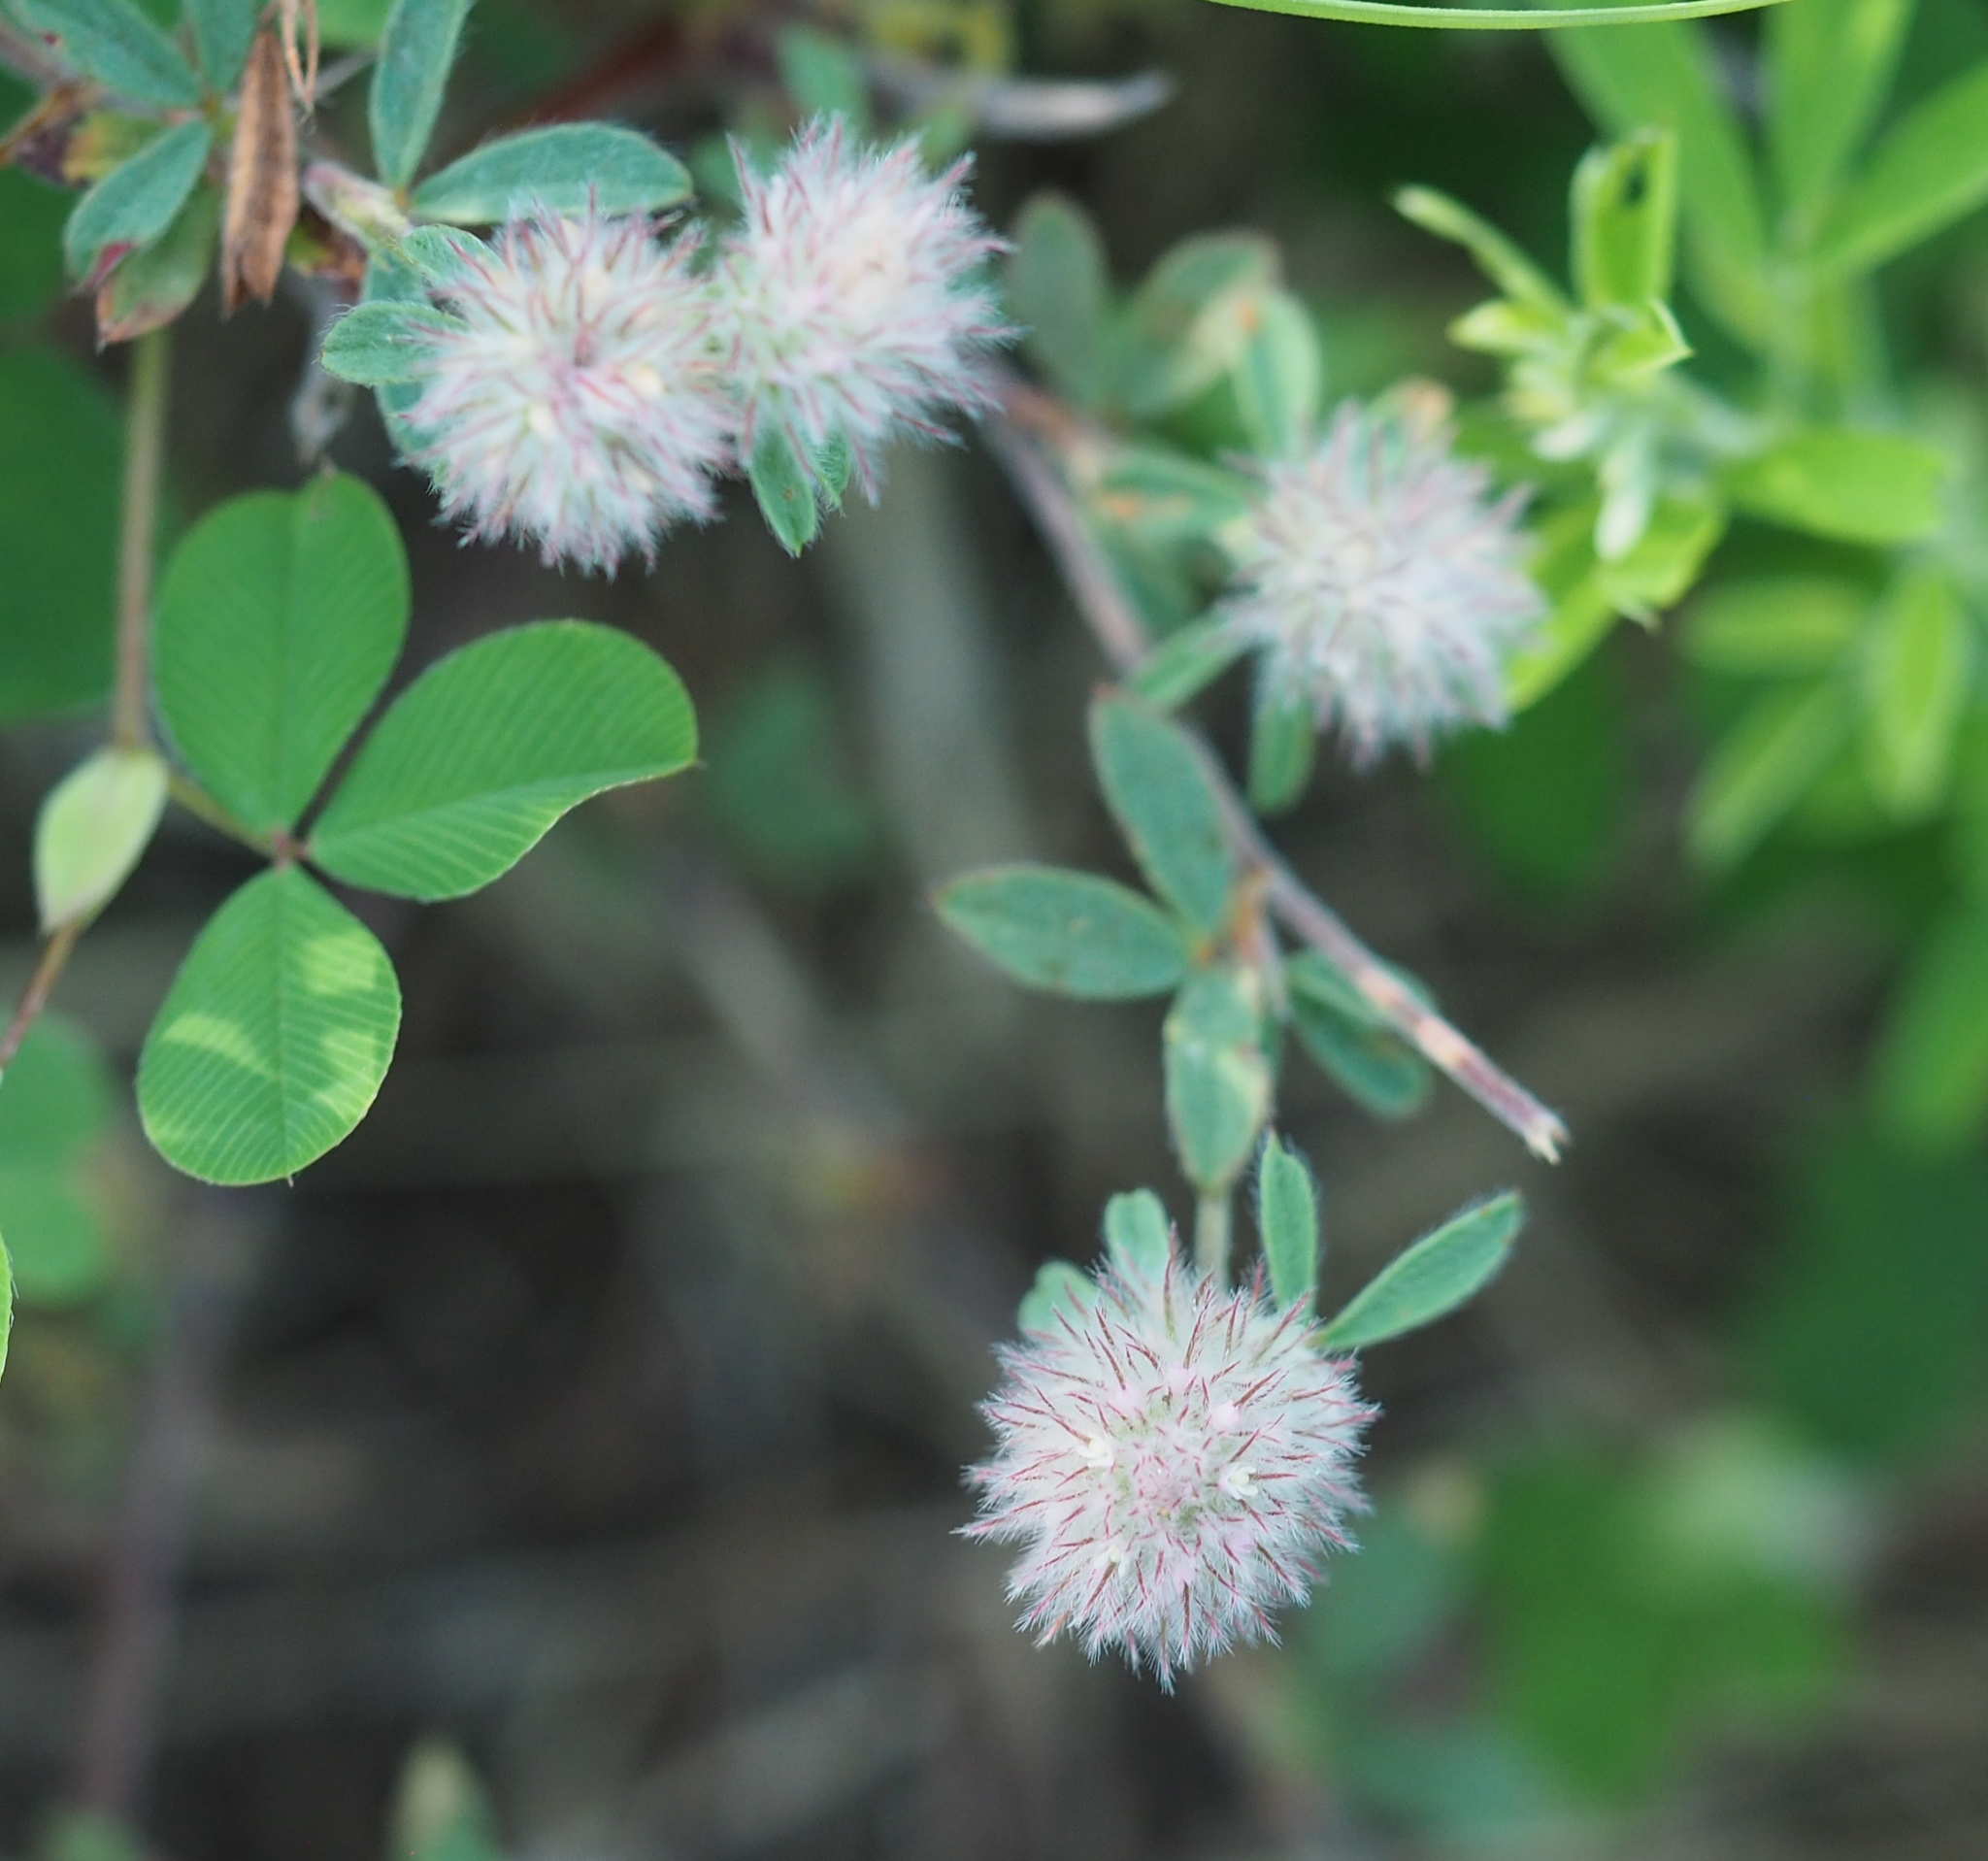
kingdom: Plantae
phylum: Tracheophyta
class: Magnoliopsida
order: Fabales
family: Fabaceae
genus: Trifolium
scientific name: Trifolium arvense
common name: Hare's-foot clover
